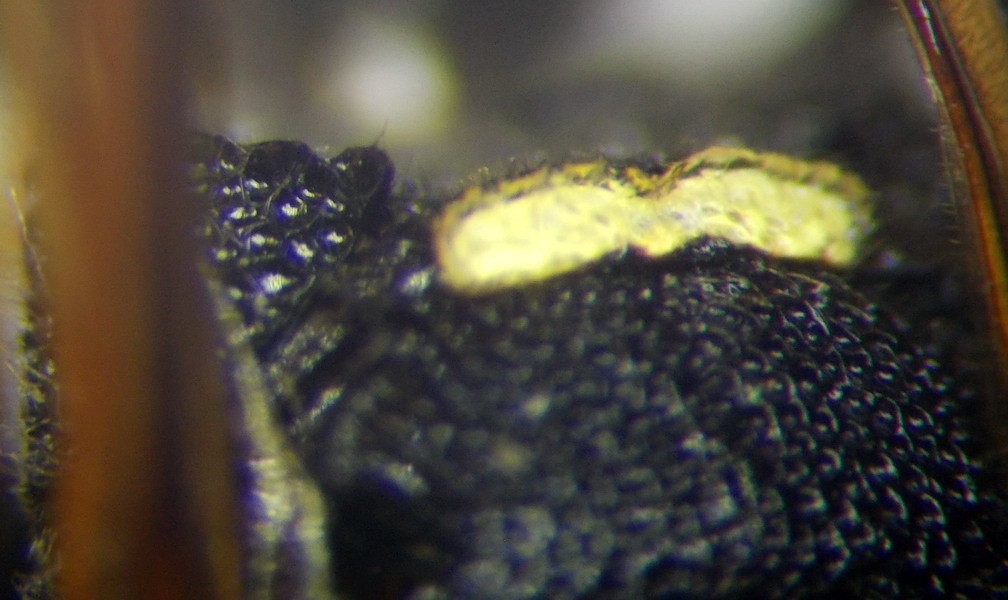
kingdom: Animalia
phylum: Arthropoda
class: Insecta
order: Hymenoptera
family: Eumenidae
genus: Euodynerus
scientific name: Euodynerus posticus
